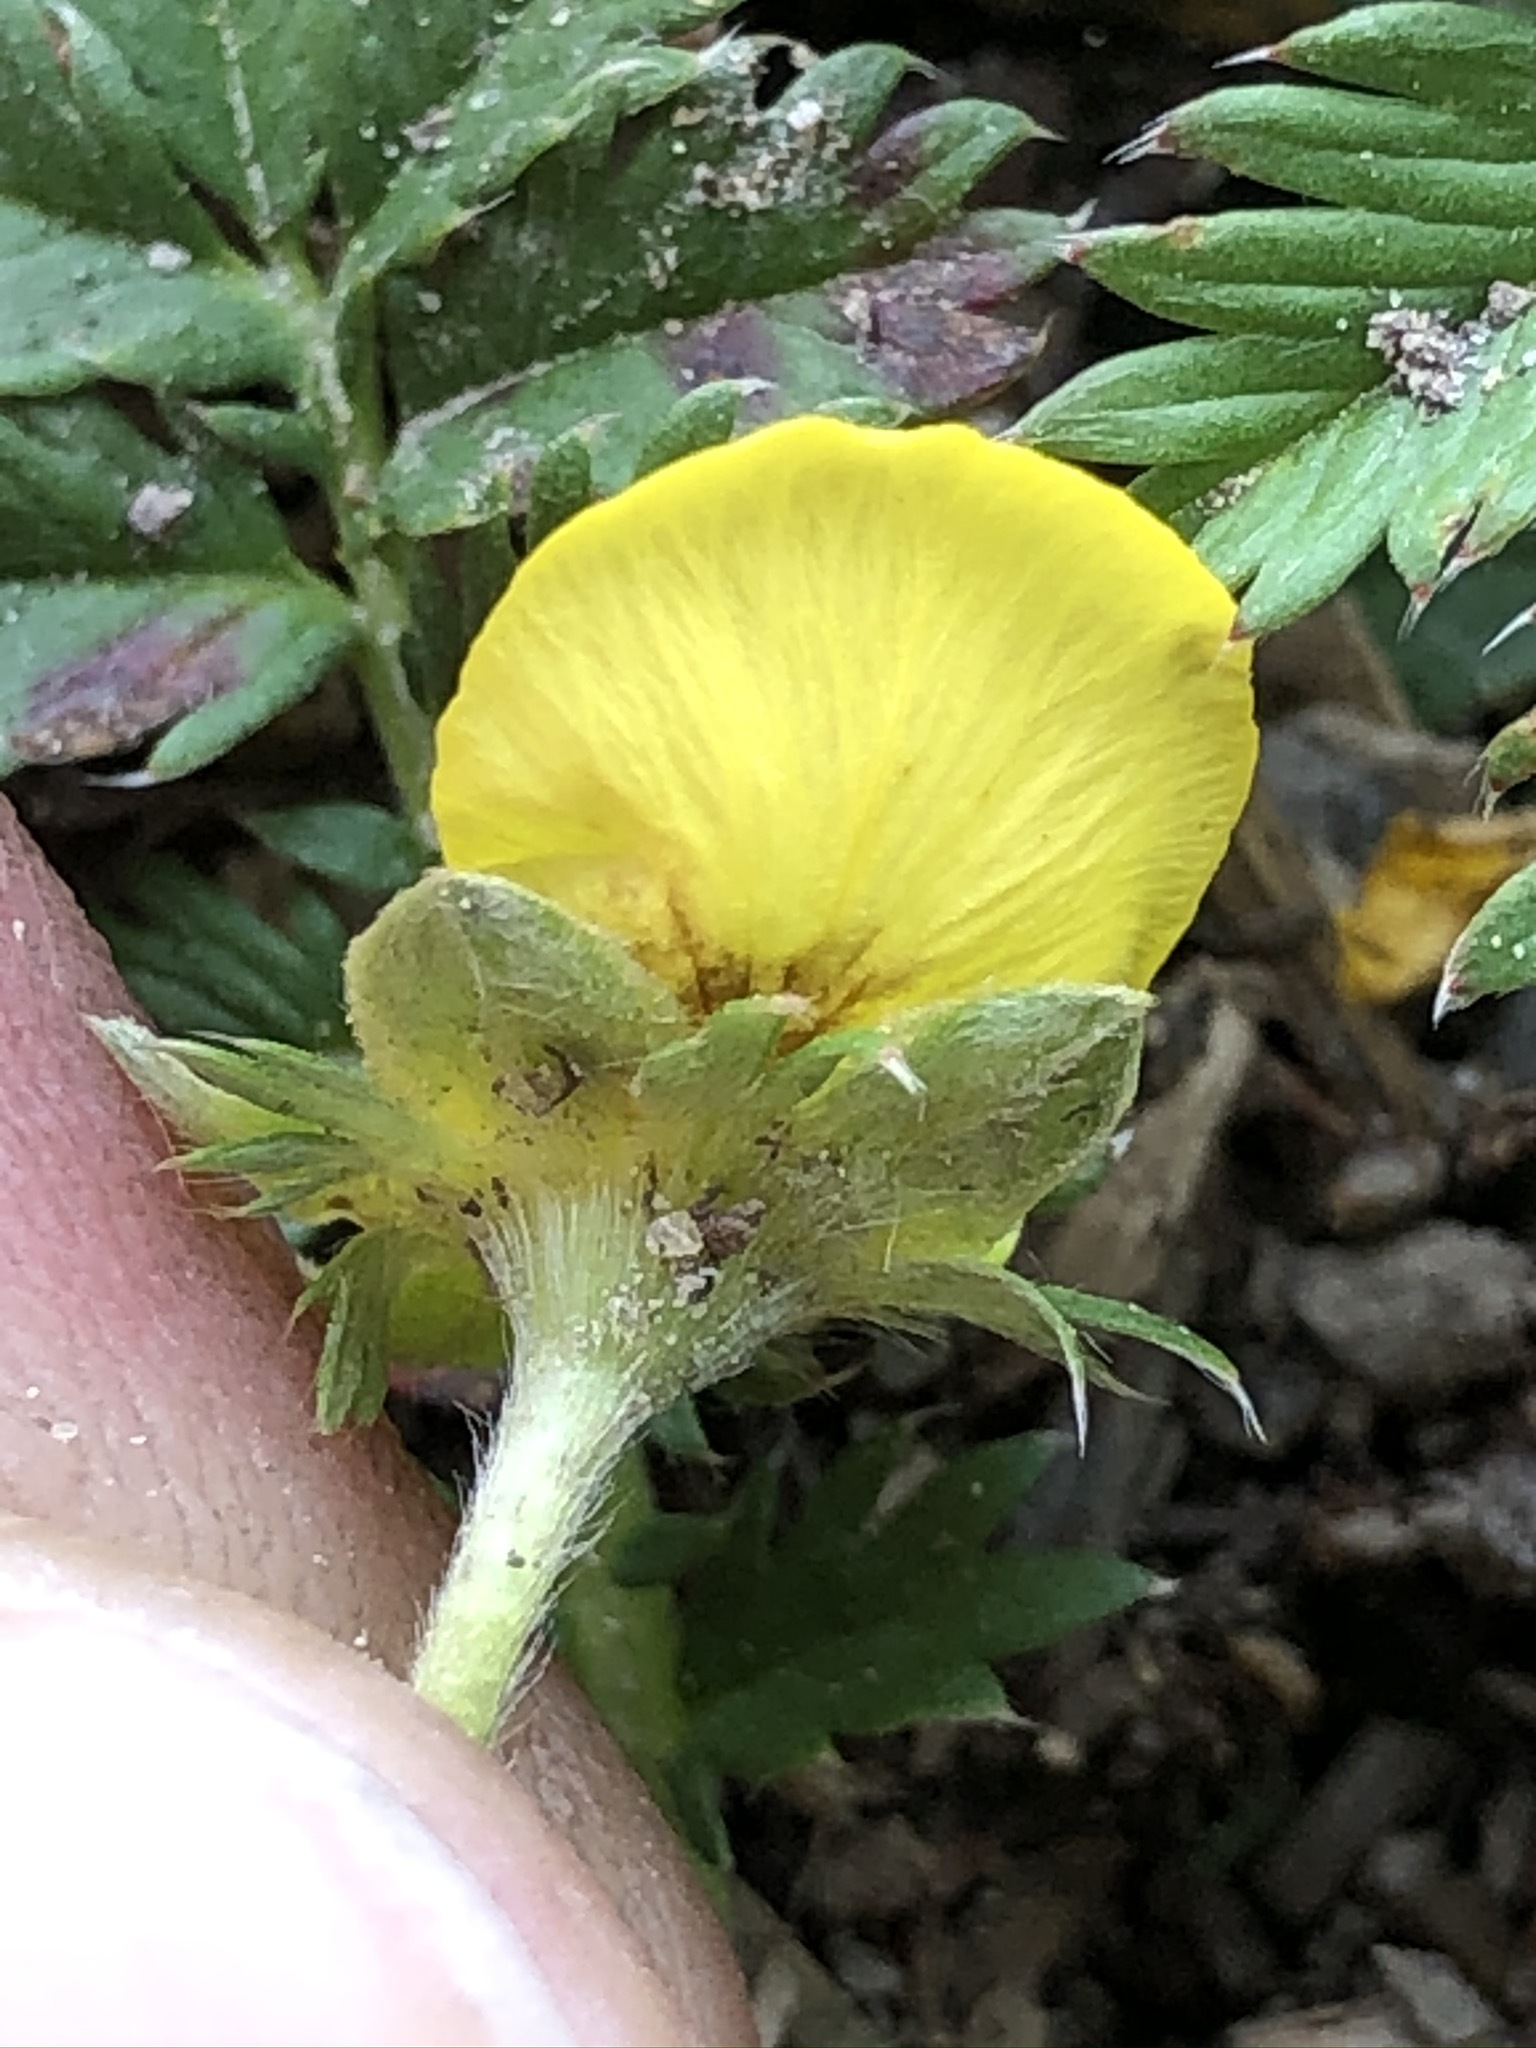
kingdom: Plantae
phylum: Tracheophyta
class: Magnoliopsida
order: Rosales
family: Rosaceae
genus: Argentina
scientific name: Argentina anserina
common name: Common silverweed
